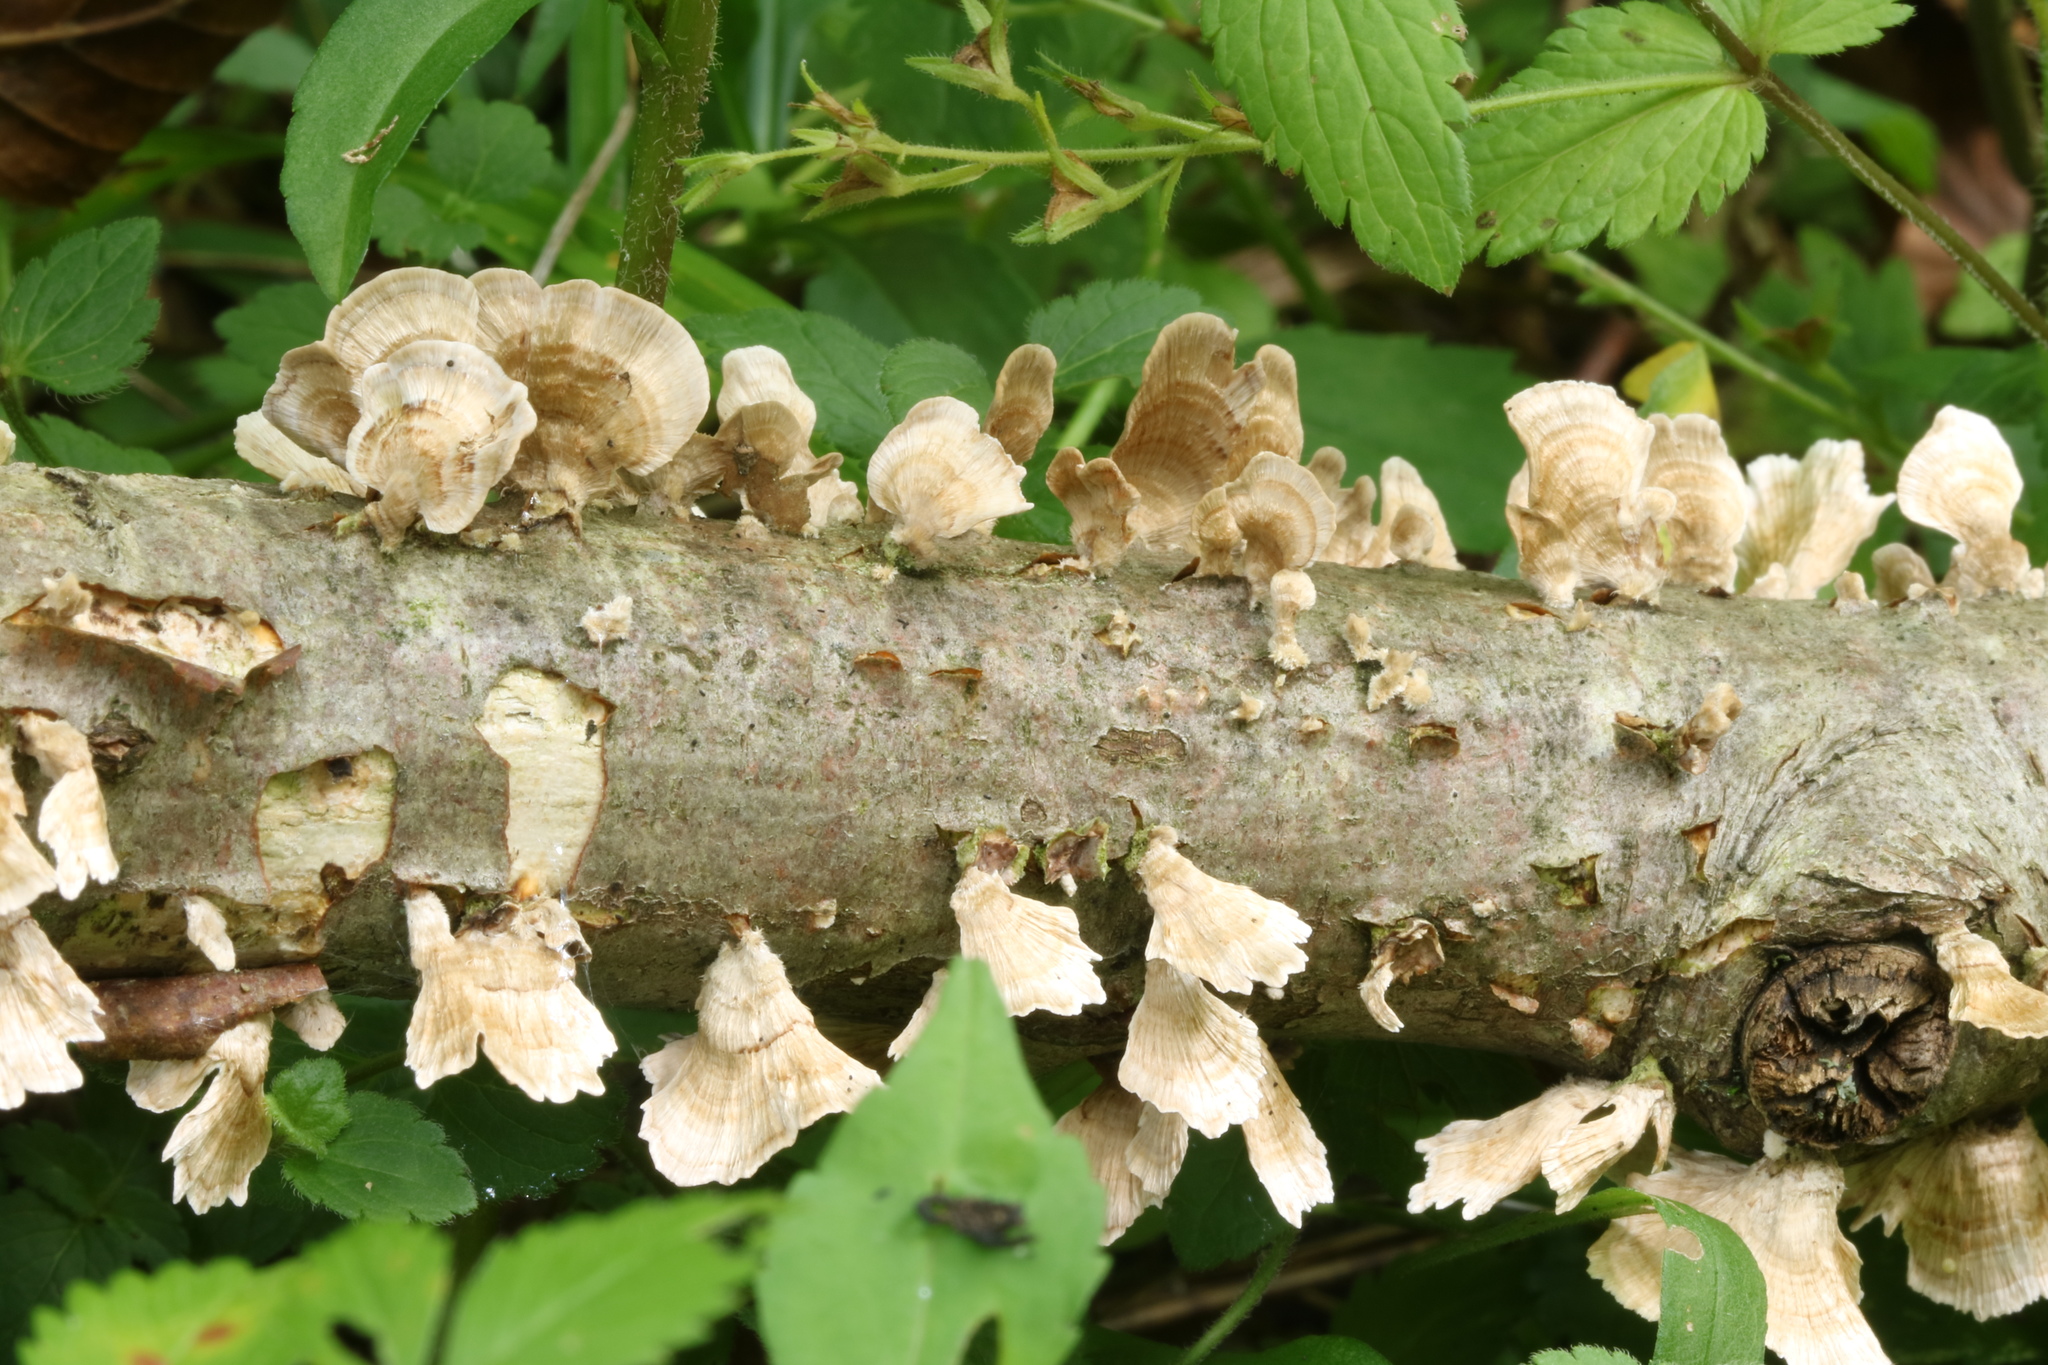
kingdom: Fungi
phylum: Basidiomycota
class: Agaricomycetes
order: Russulales
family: Stereaceae
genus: Stereum
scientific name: Stereum striatum
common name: Silky parchment
